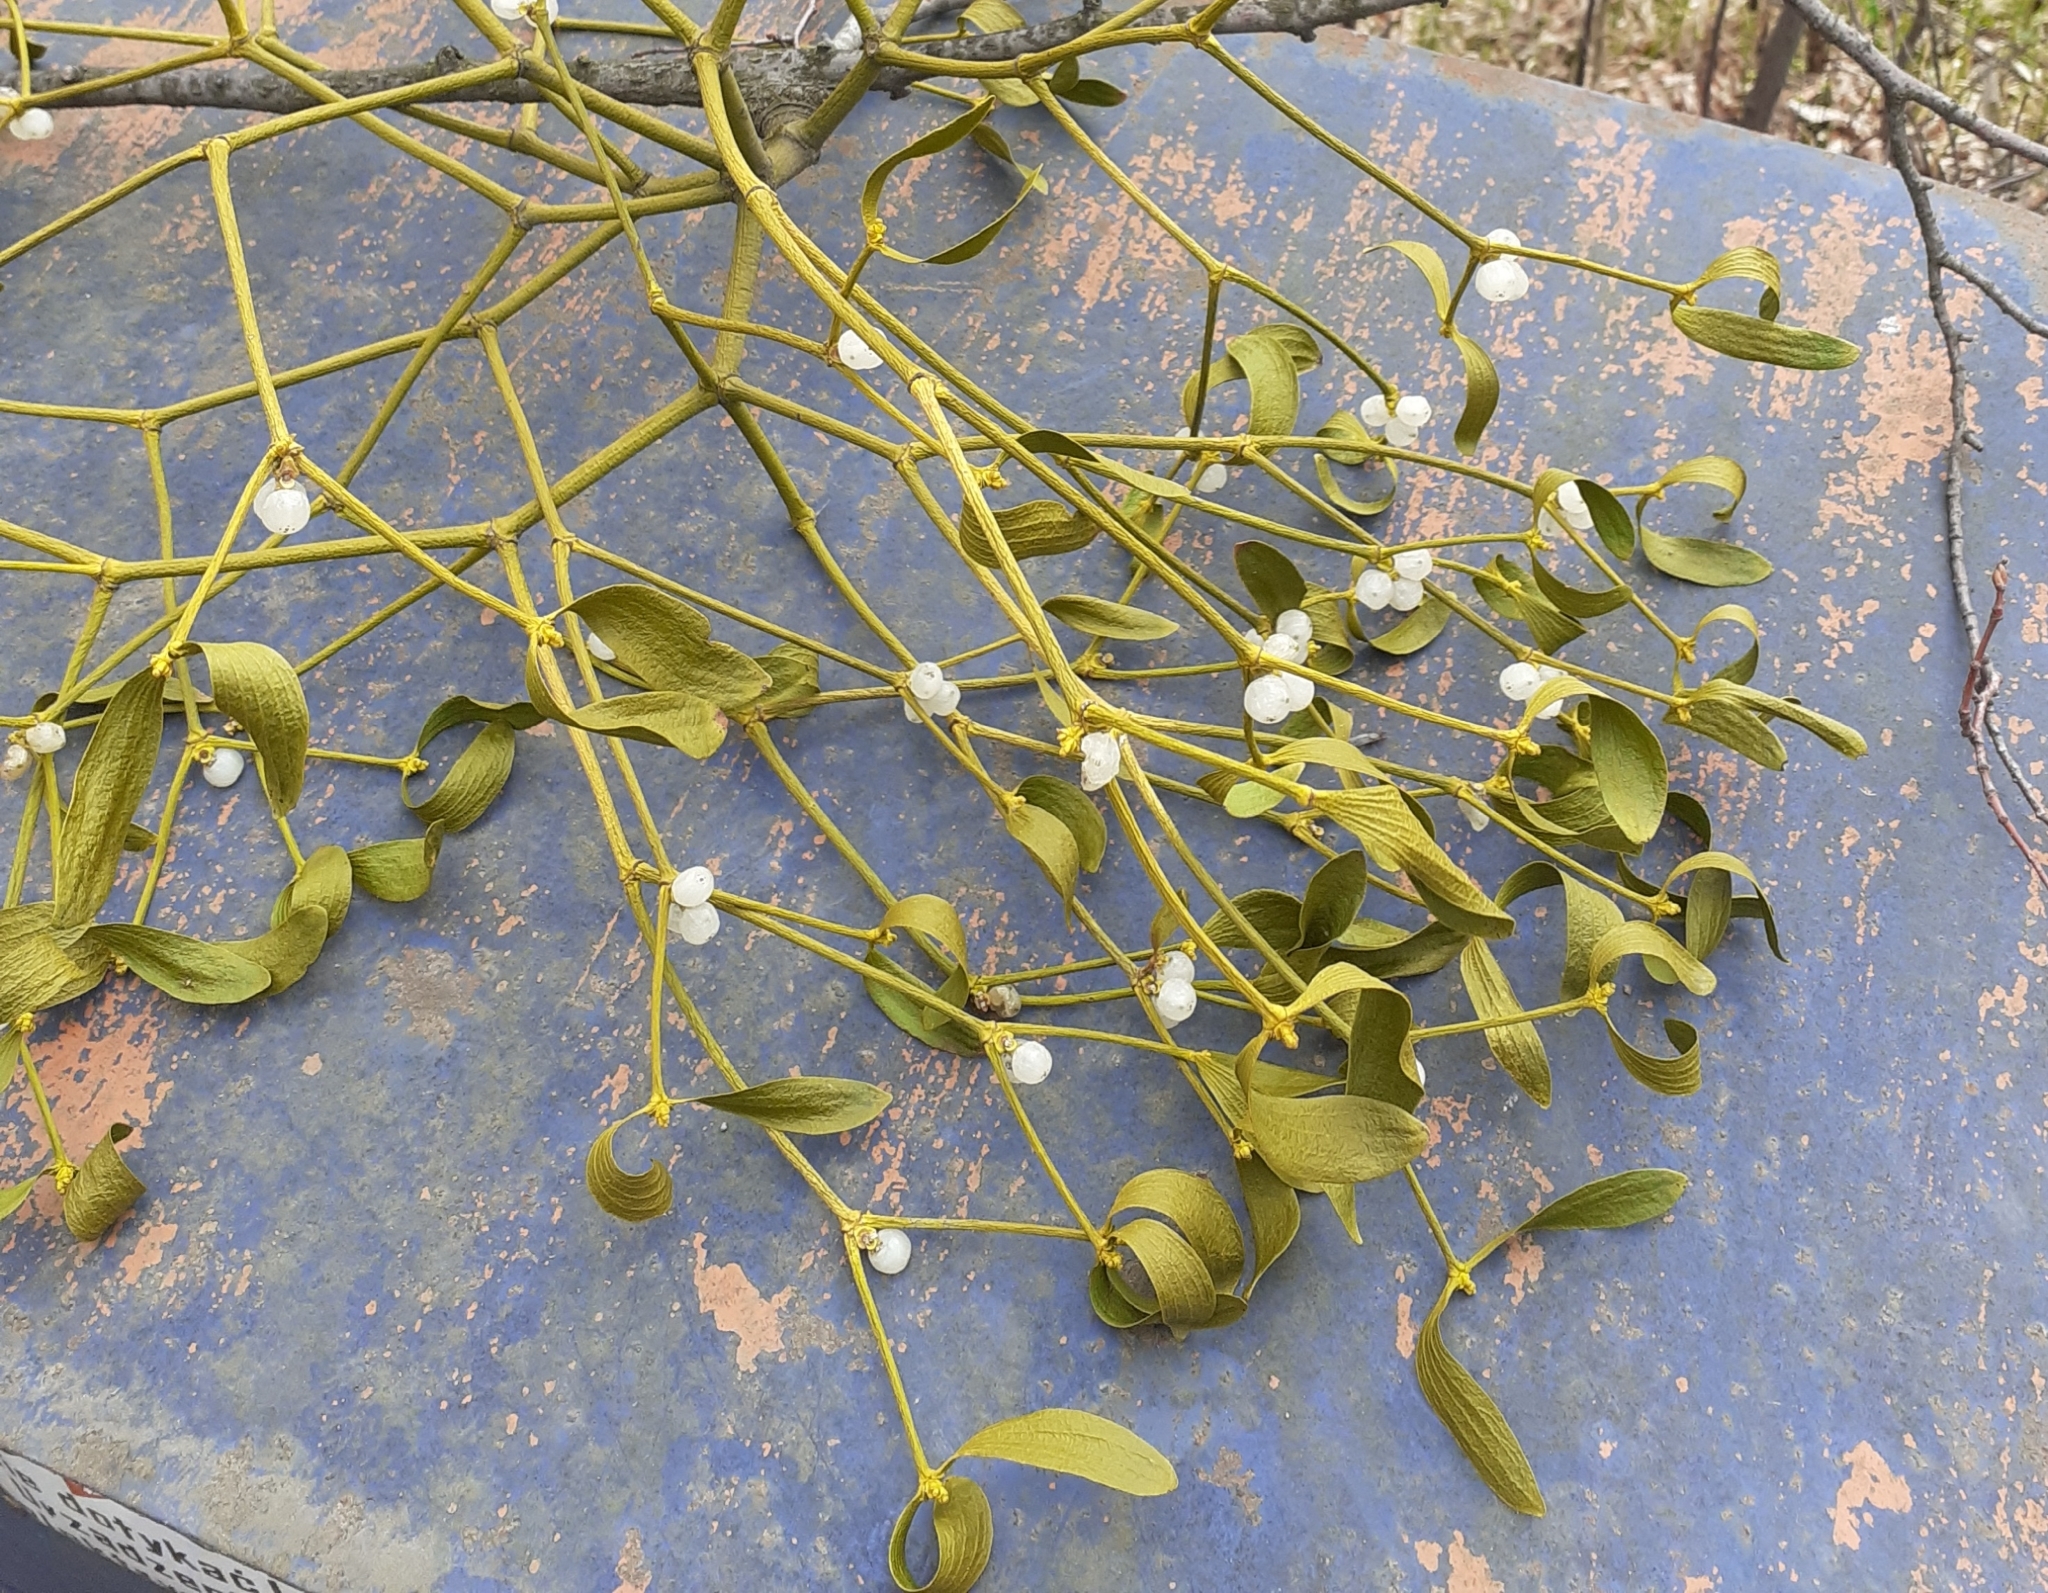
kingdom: Plantae
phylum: Tracheophyta
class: Magnoliopsida
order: Santalales
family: Viscaceae
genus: Viscum
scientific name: Viscum album
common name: Mistletoe
